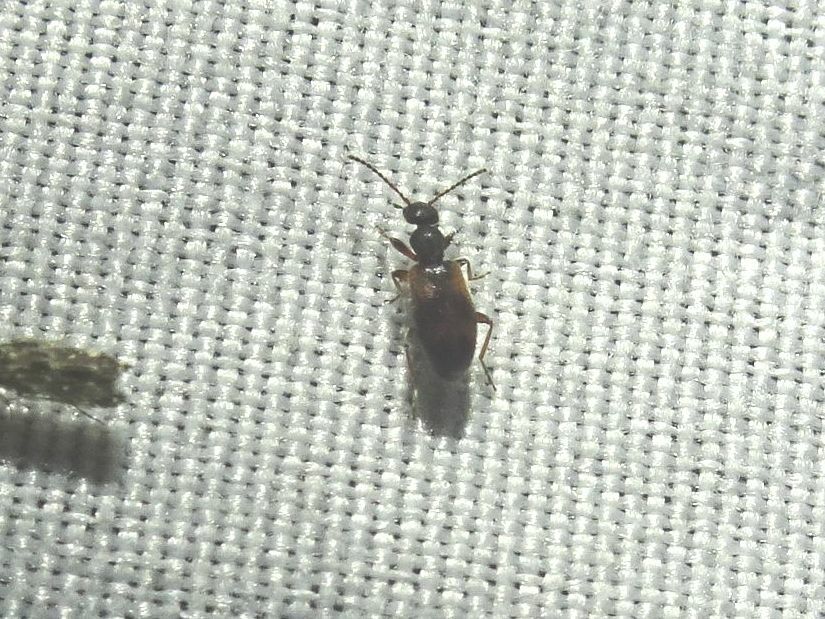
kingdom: Animalia
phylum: Arthropoda
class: Insecta
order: Coleoptera
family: Anthicidae
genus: Anthicus
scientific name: Anthicus antherinus
